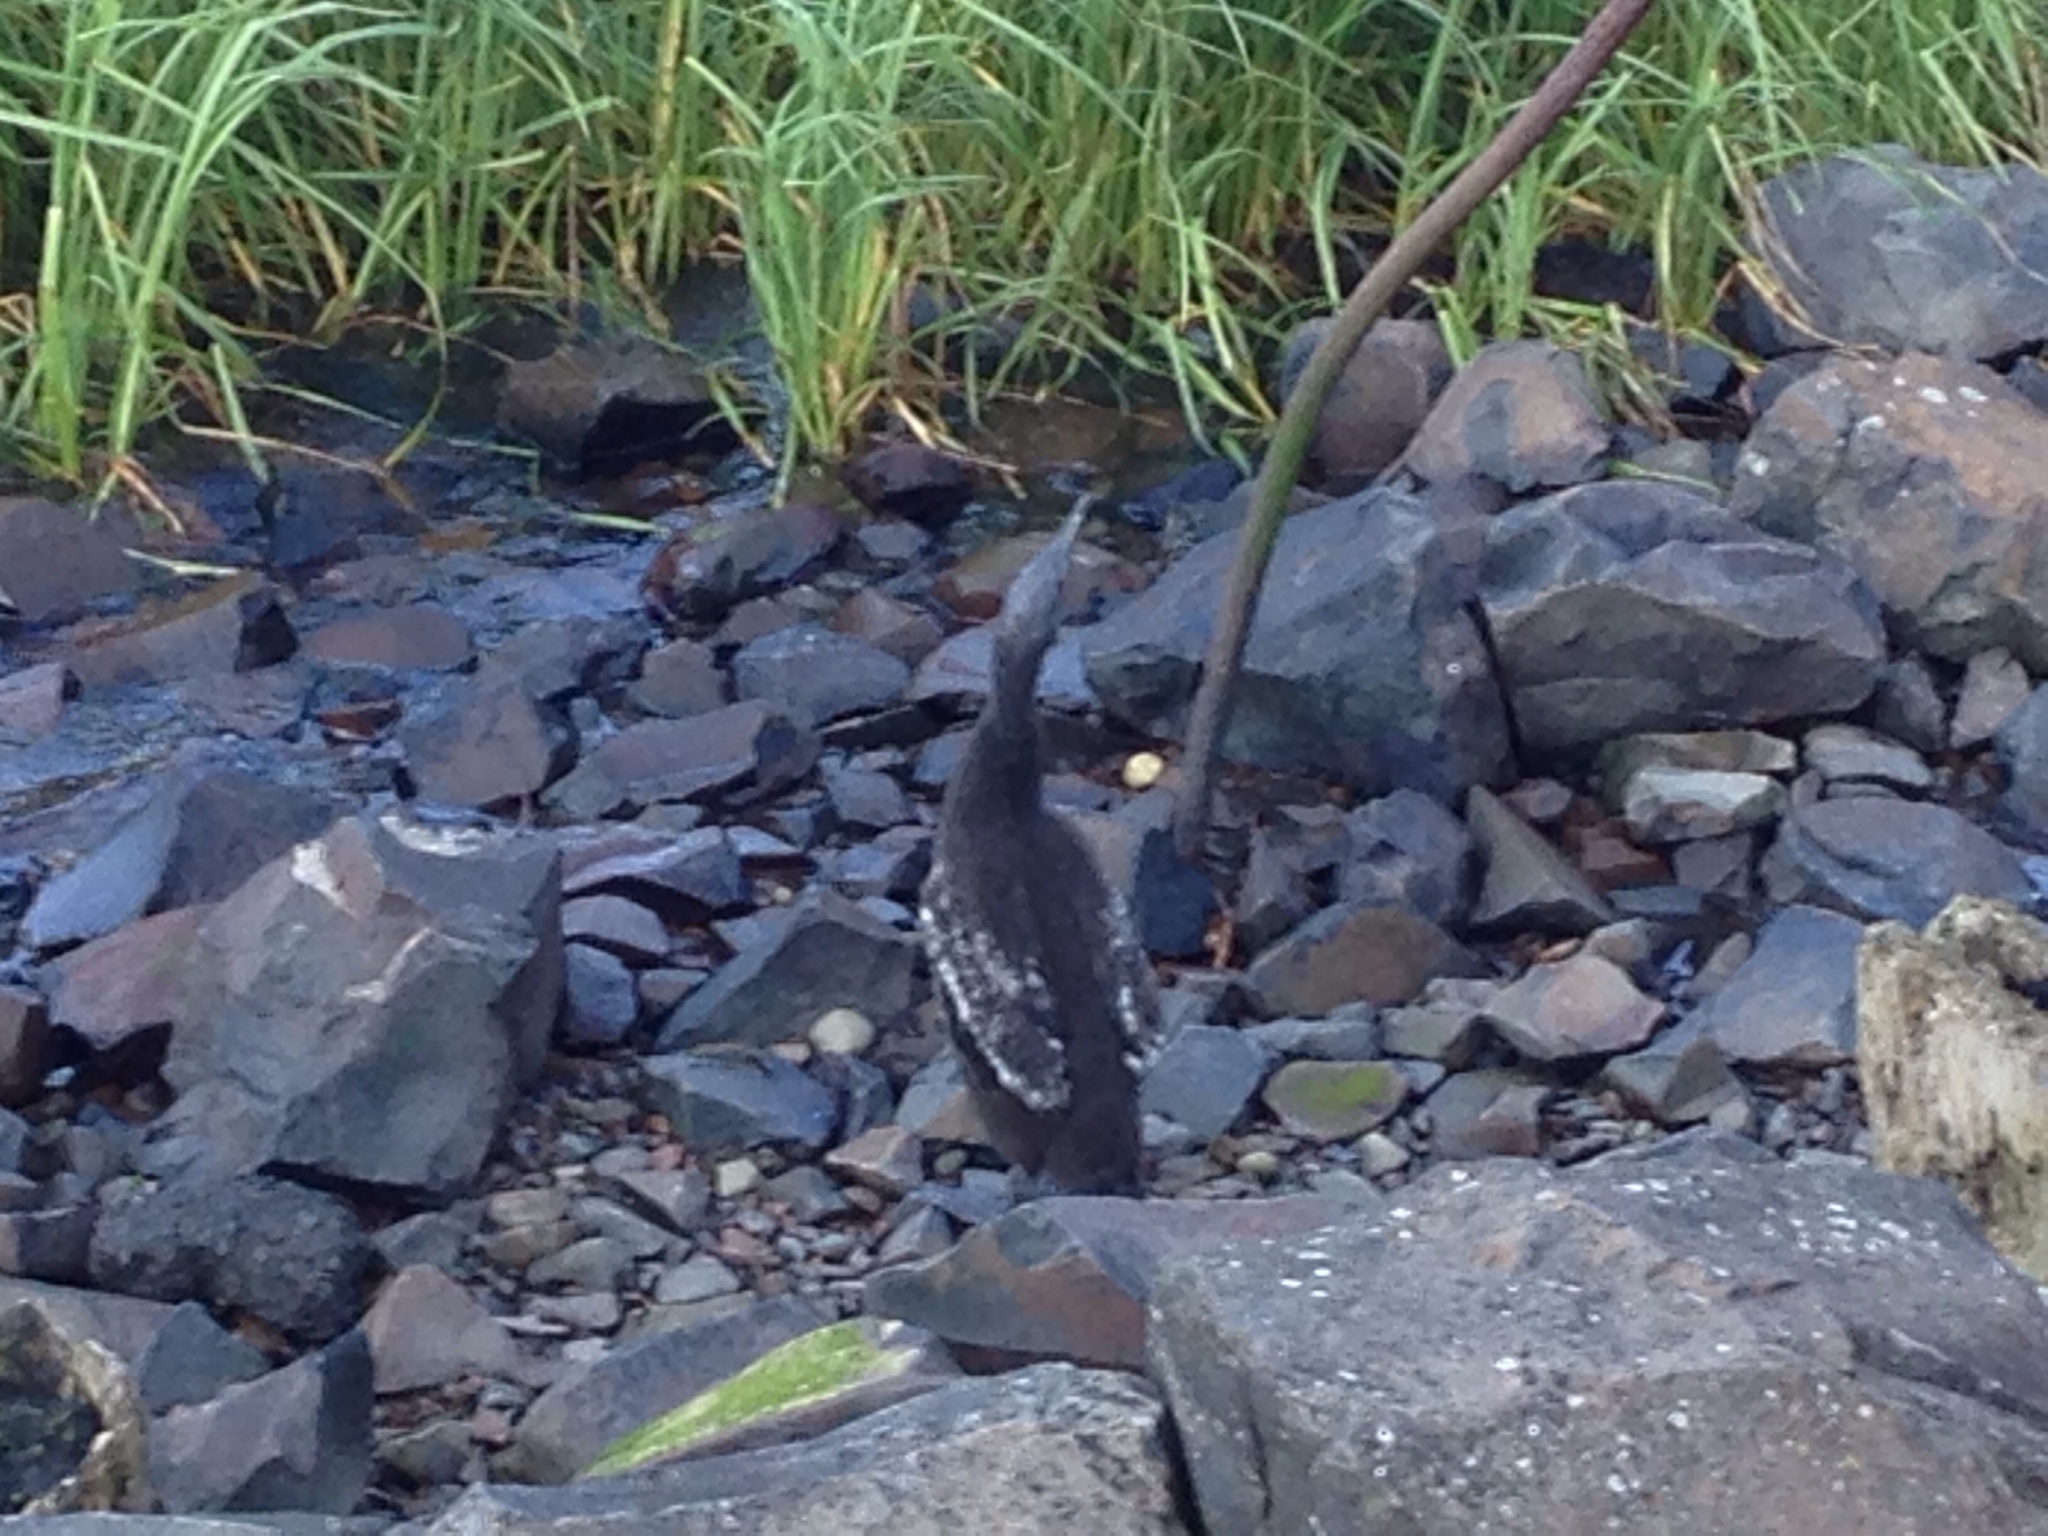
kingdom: Animalia
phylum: Chordata
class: Aves
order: Suliformes
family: Phalacrocoracidae
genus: Phalacrocorax
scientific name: Phalacrocorax auritus
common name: Double-crested cormorant
